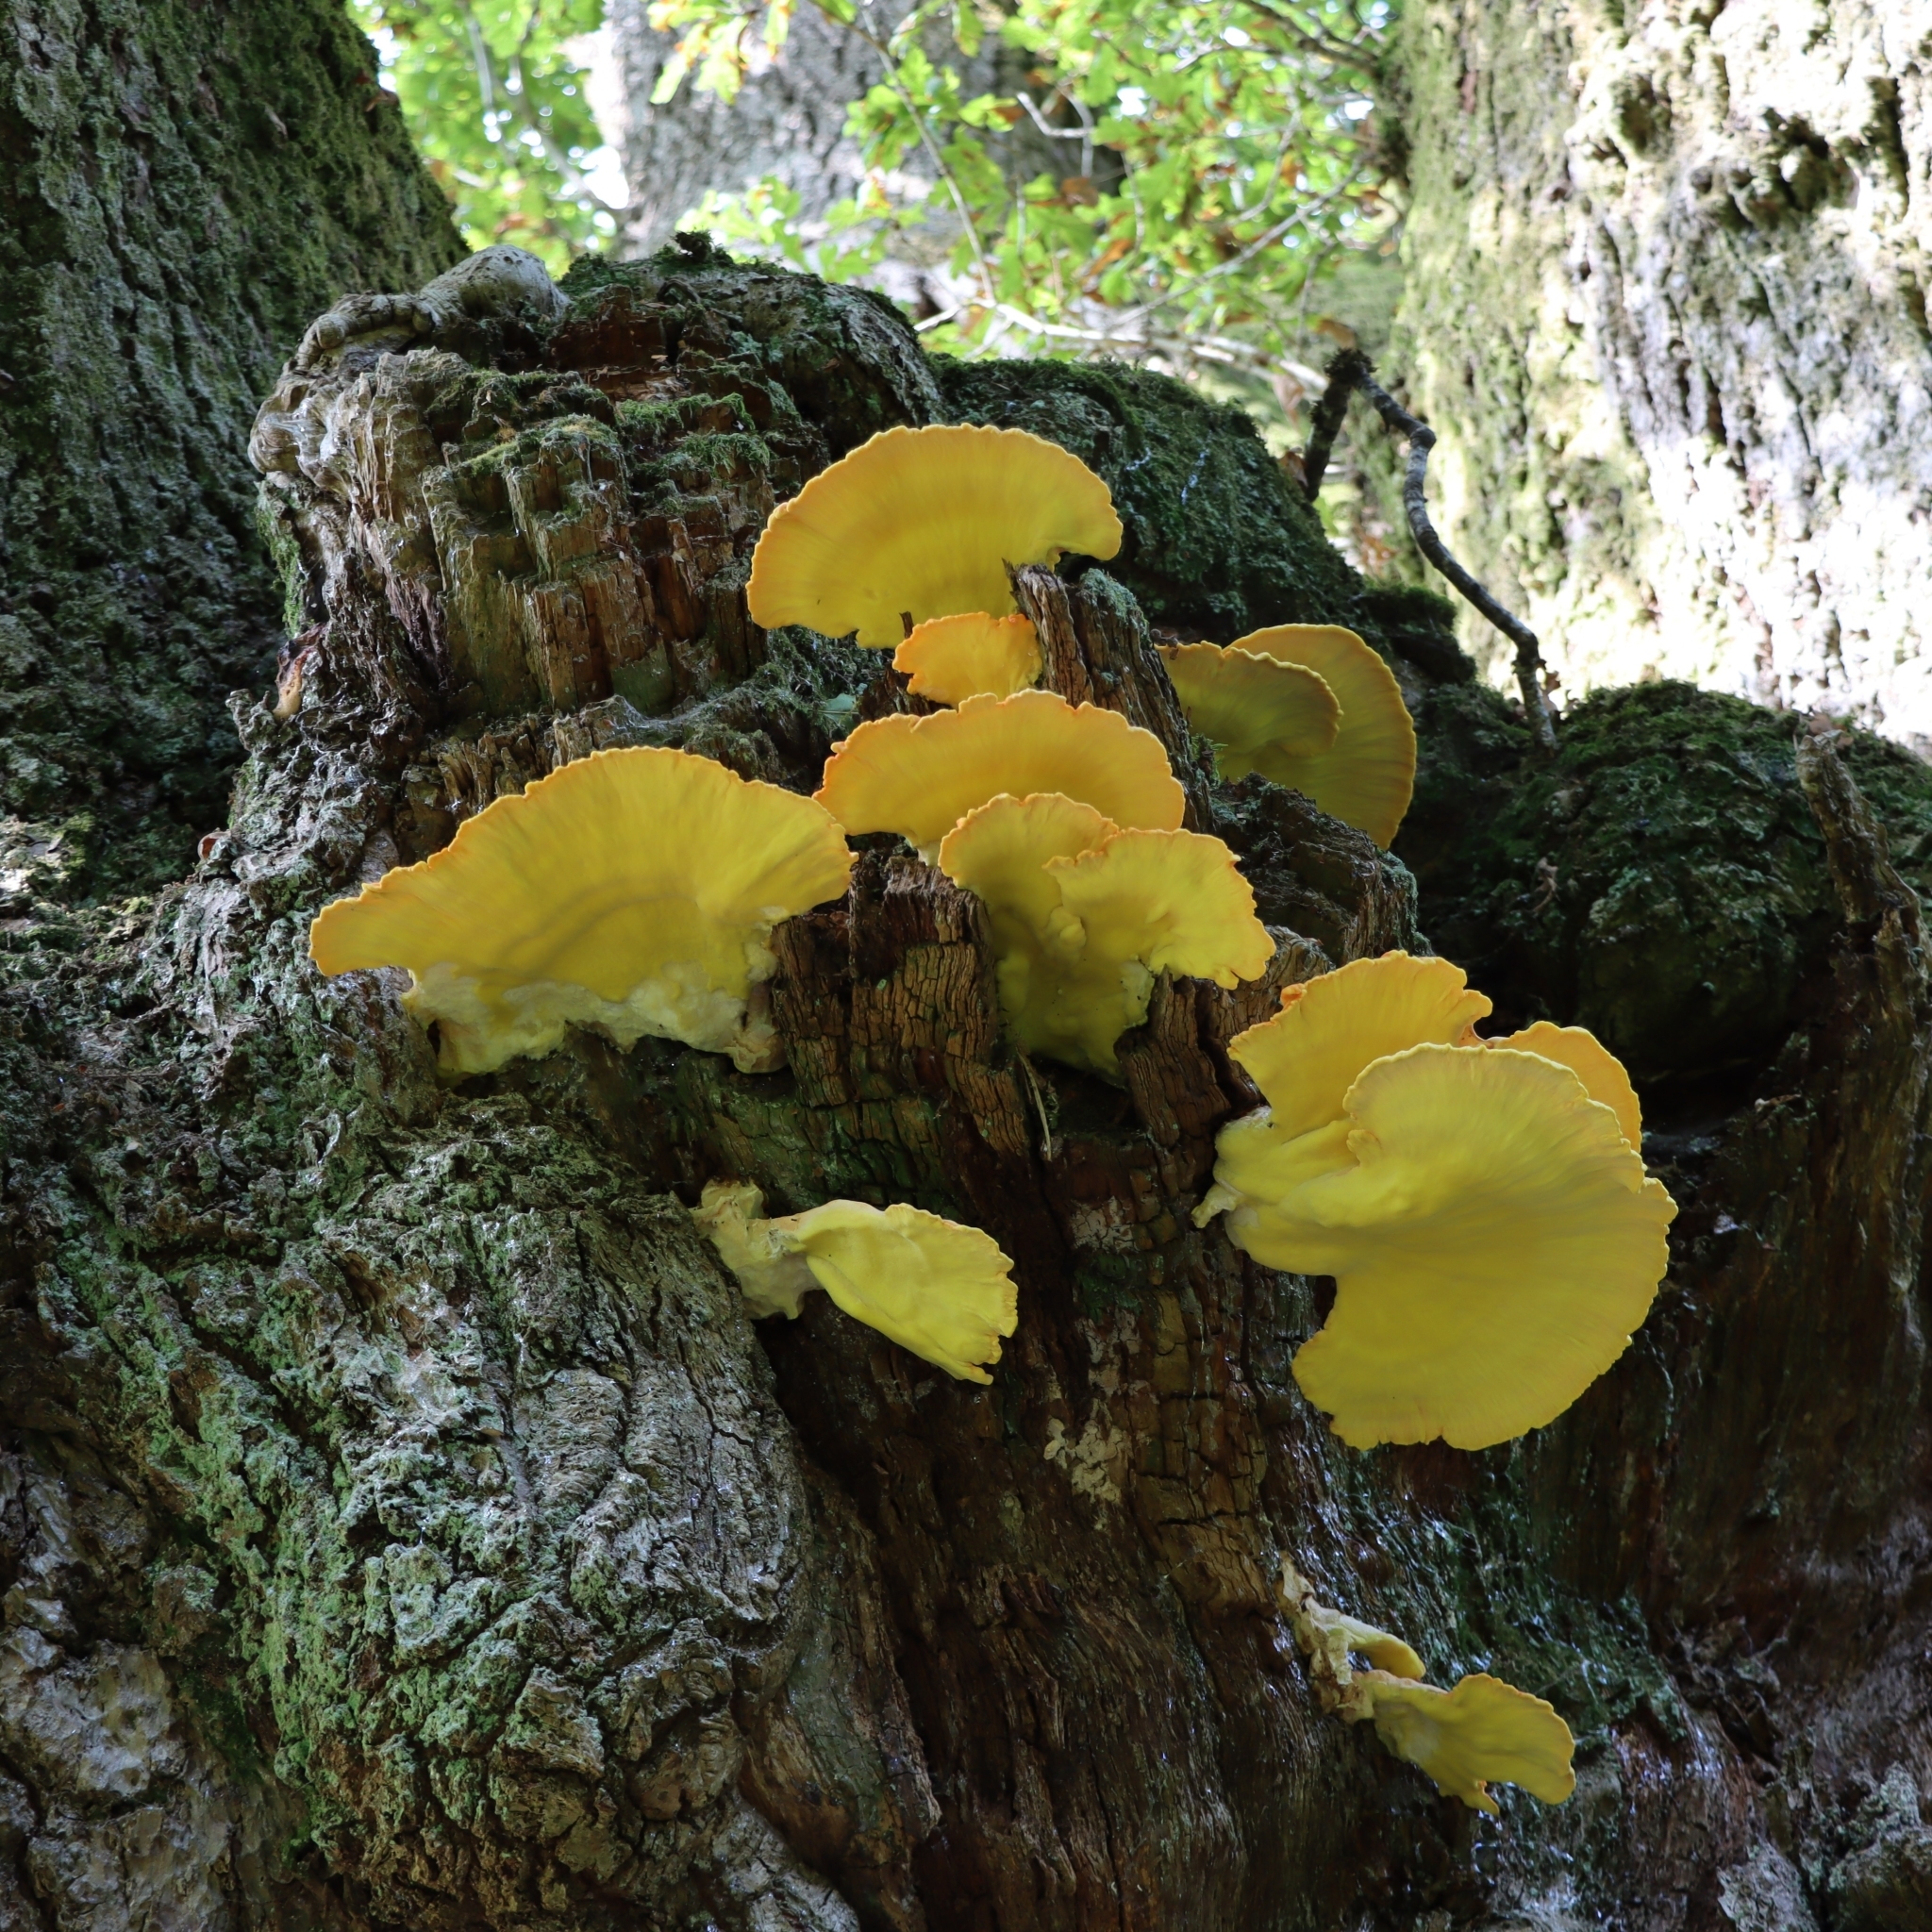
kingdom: Fungi
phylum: Basidiomycota
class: Agaricomycetes
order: Polyporales
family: Laetiporaceae
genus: Laetiporus
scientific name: Laetiporus sulphureus
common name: Chicken of the woods
